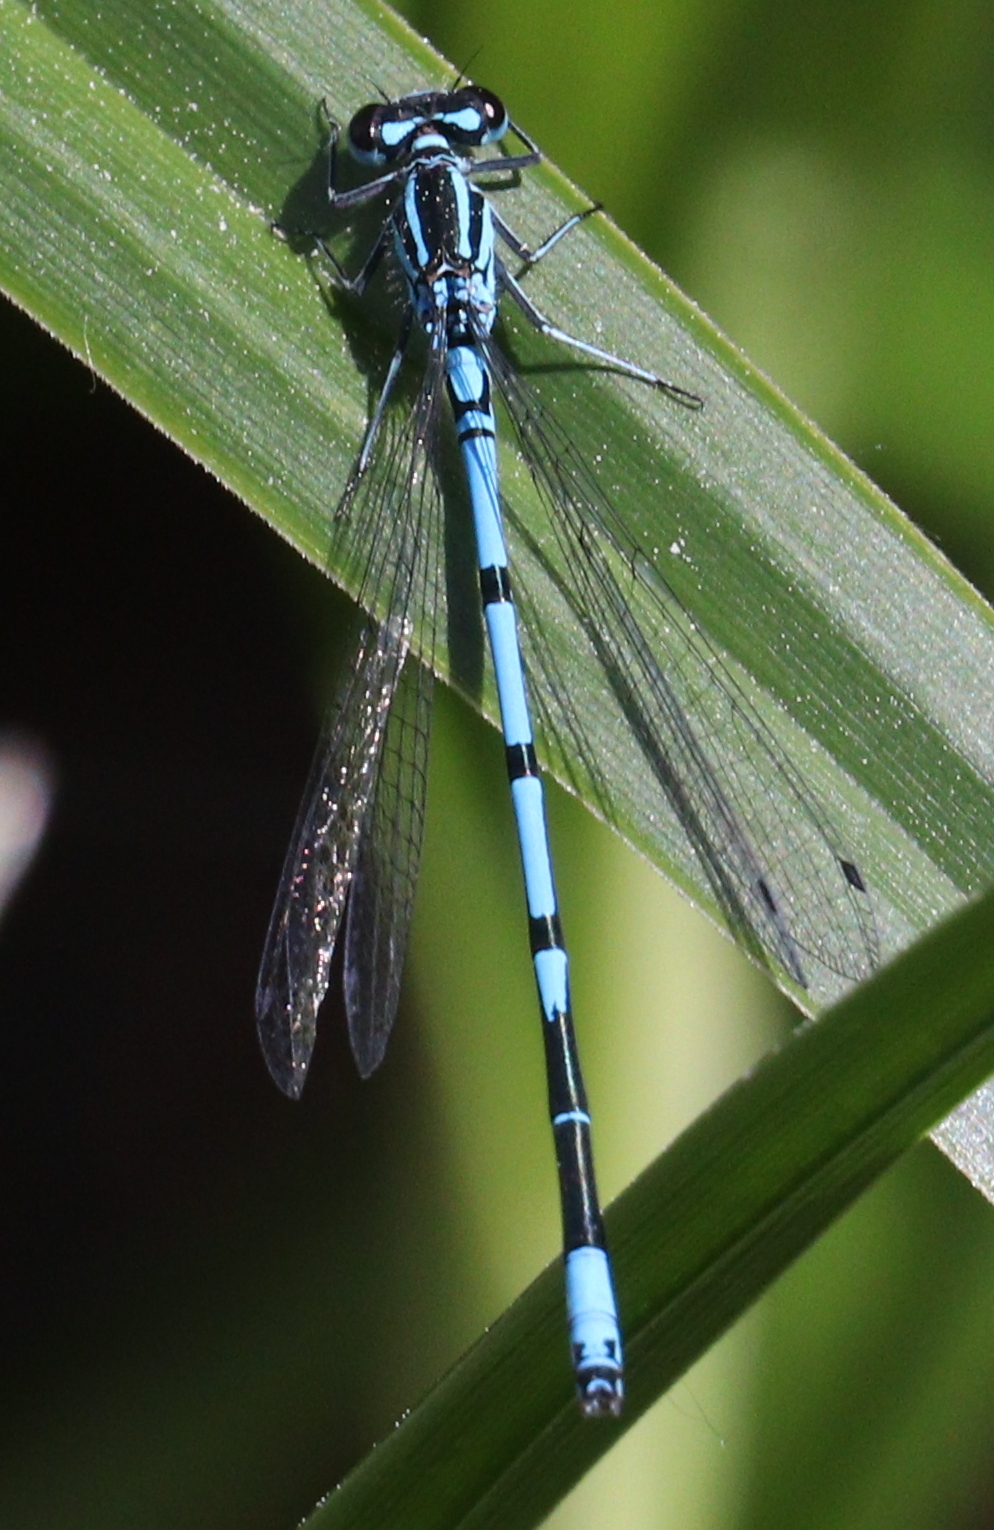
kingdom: Animalia
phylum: Arthropoda
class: Insecta
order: Odonata
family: Coenagrionidae
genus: Coenagrion
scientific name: Coenagrion puella
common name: Azure damselfly
